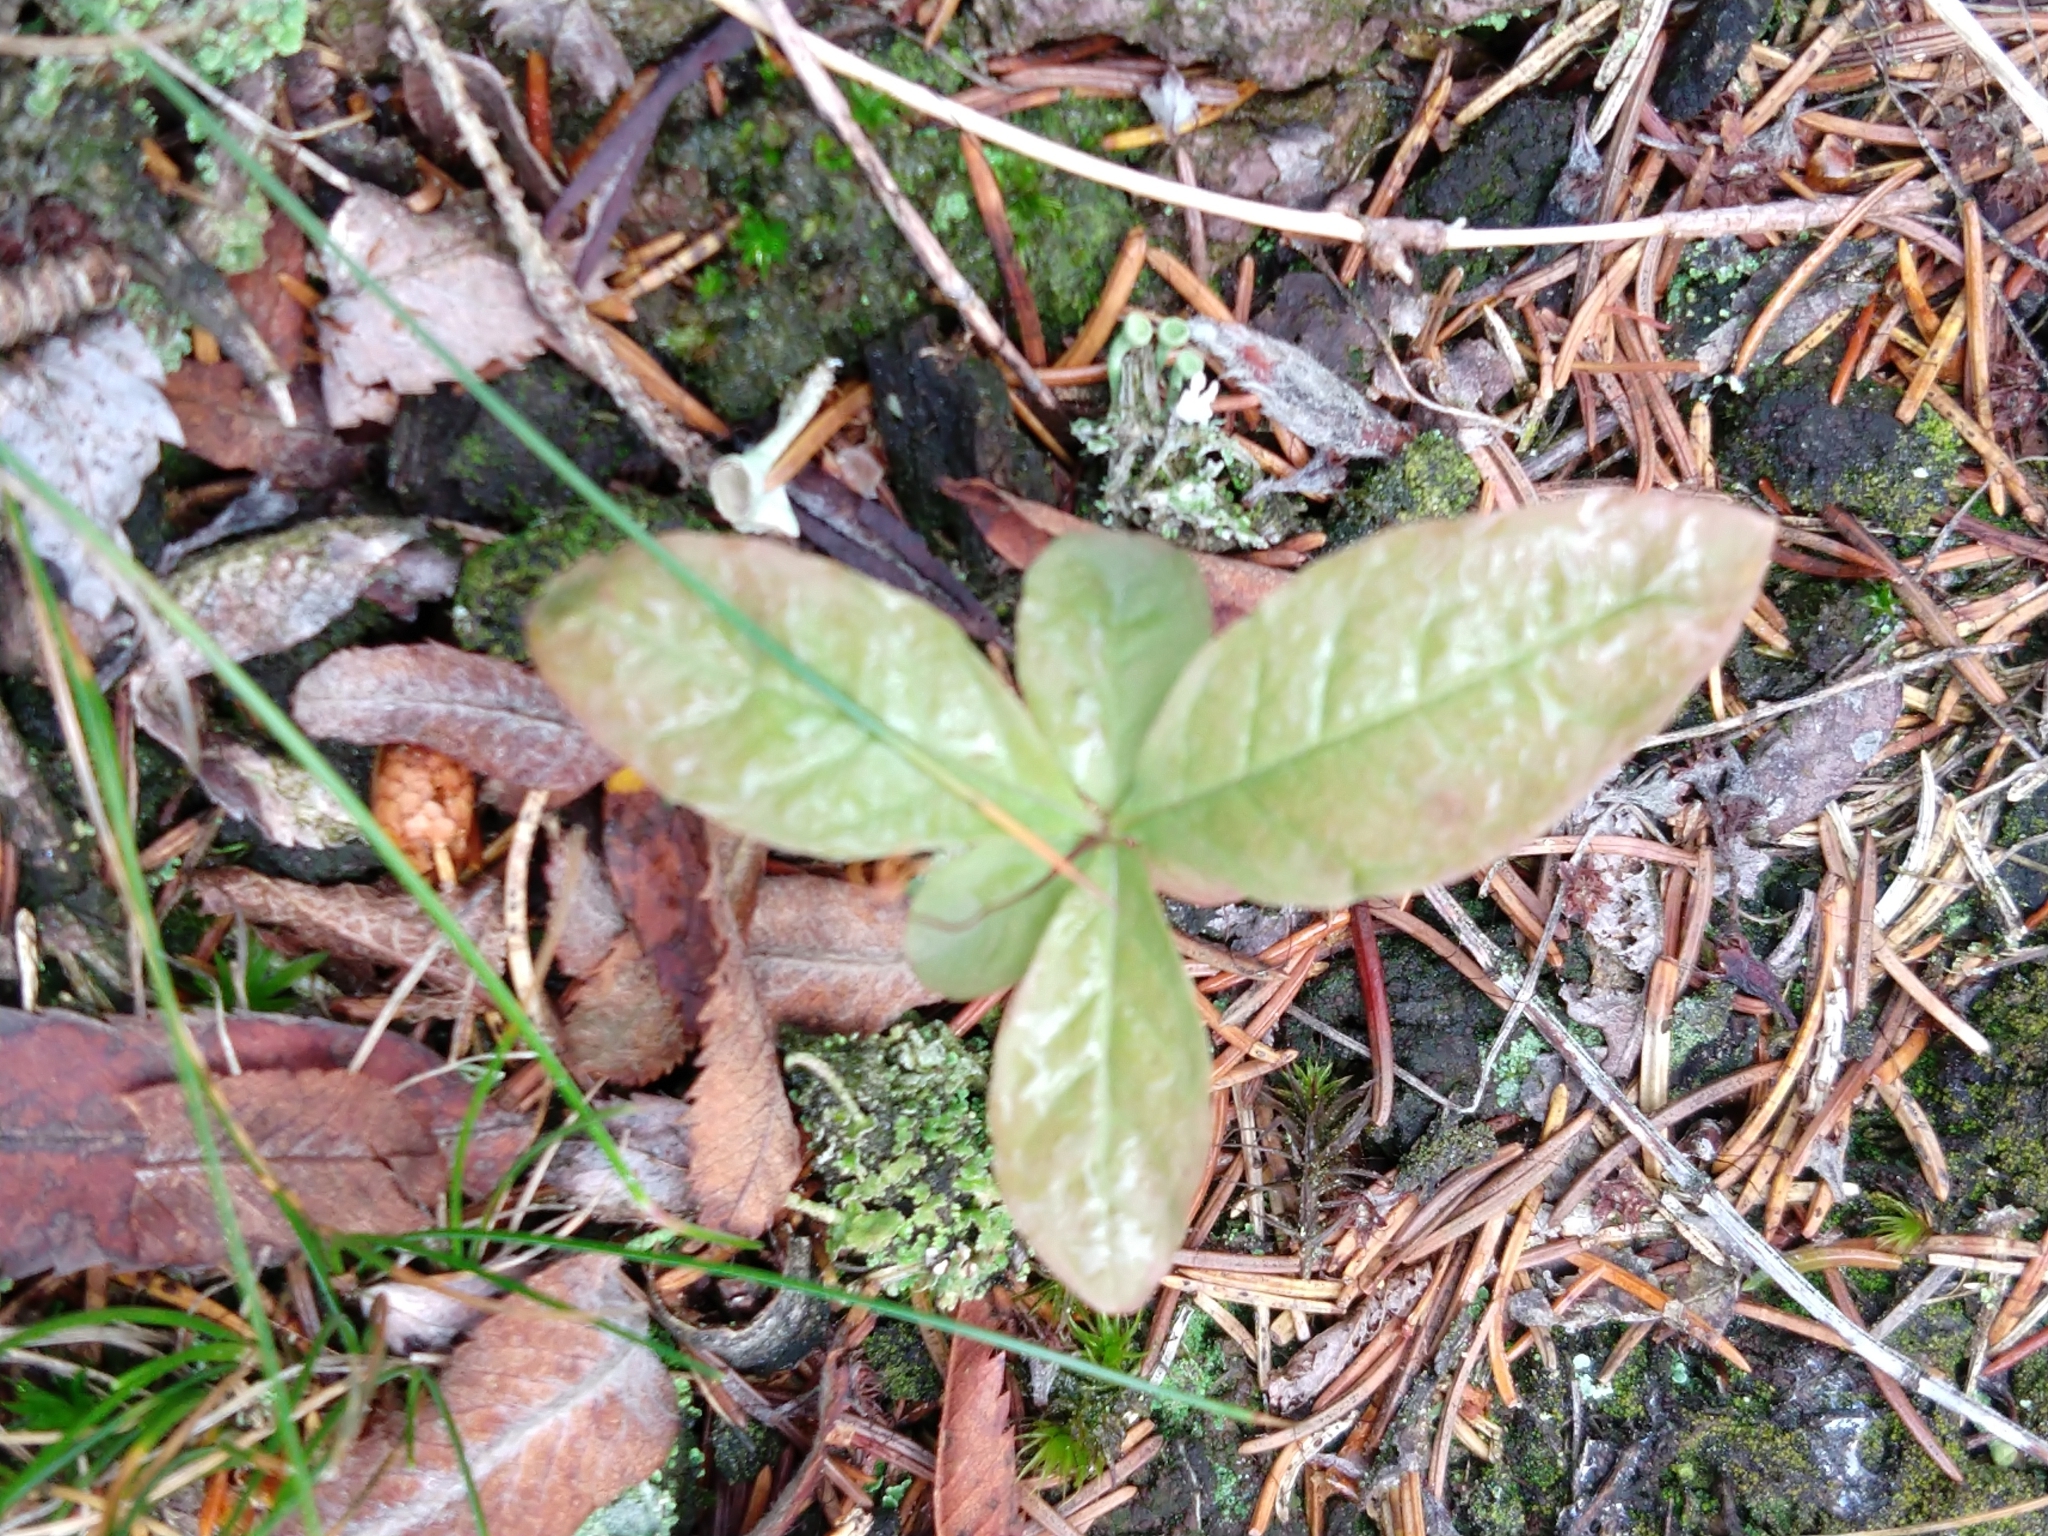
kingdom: Plantae
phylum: Tracheophyta
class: Magnoliopsida
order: Ericales
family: Primulaceae
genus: Lysimachia
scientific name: Lysimachia europaea
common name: Arctic starflower
